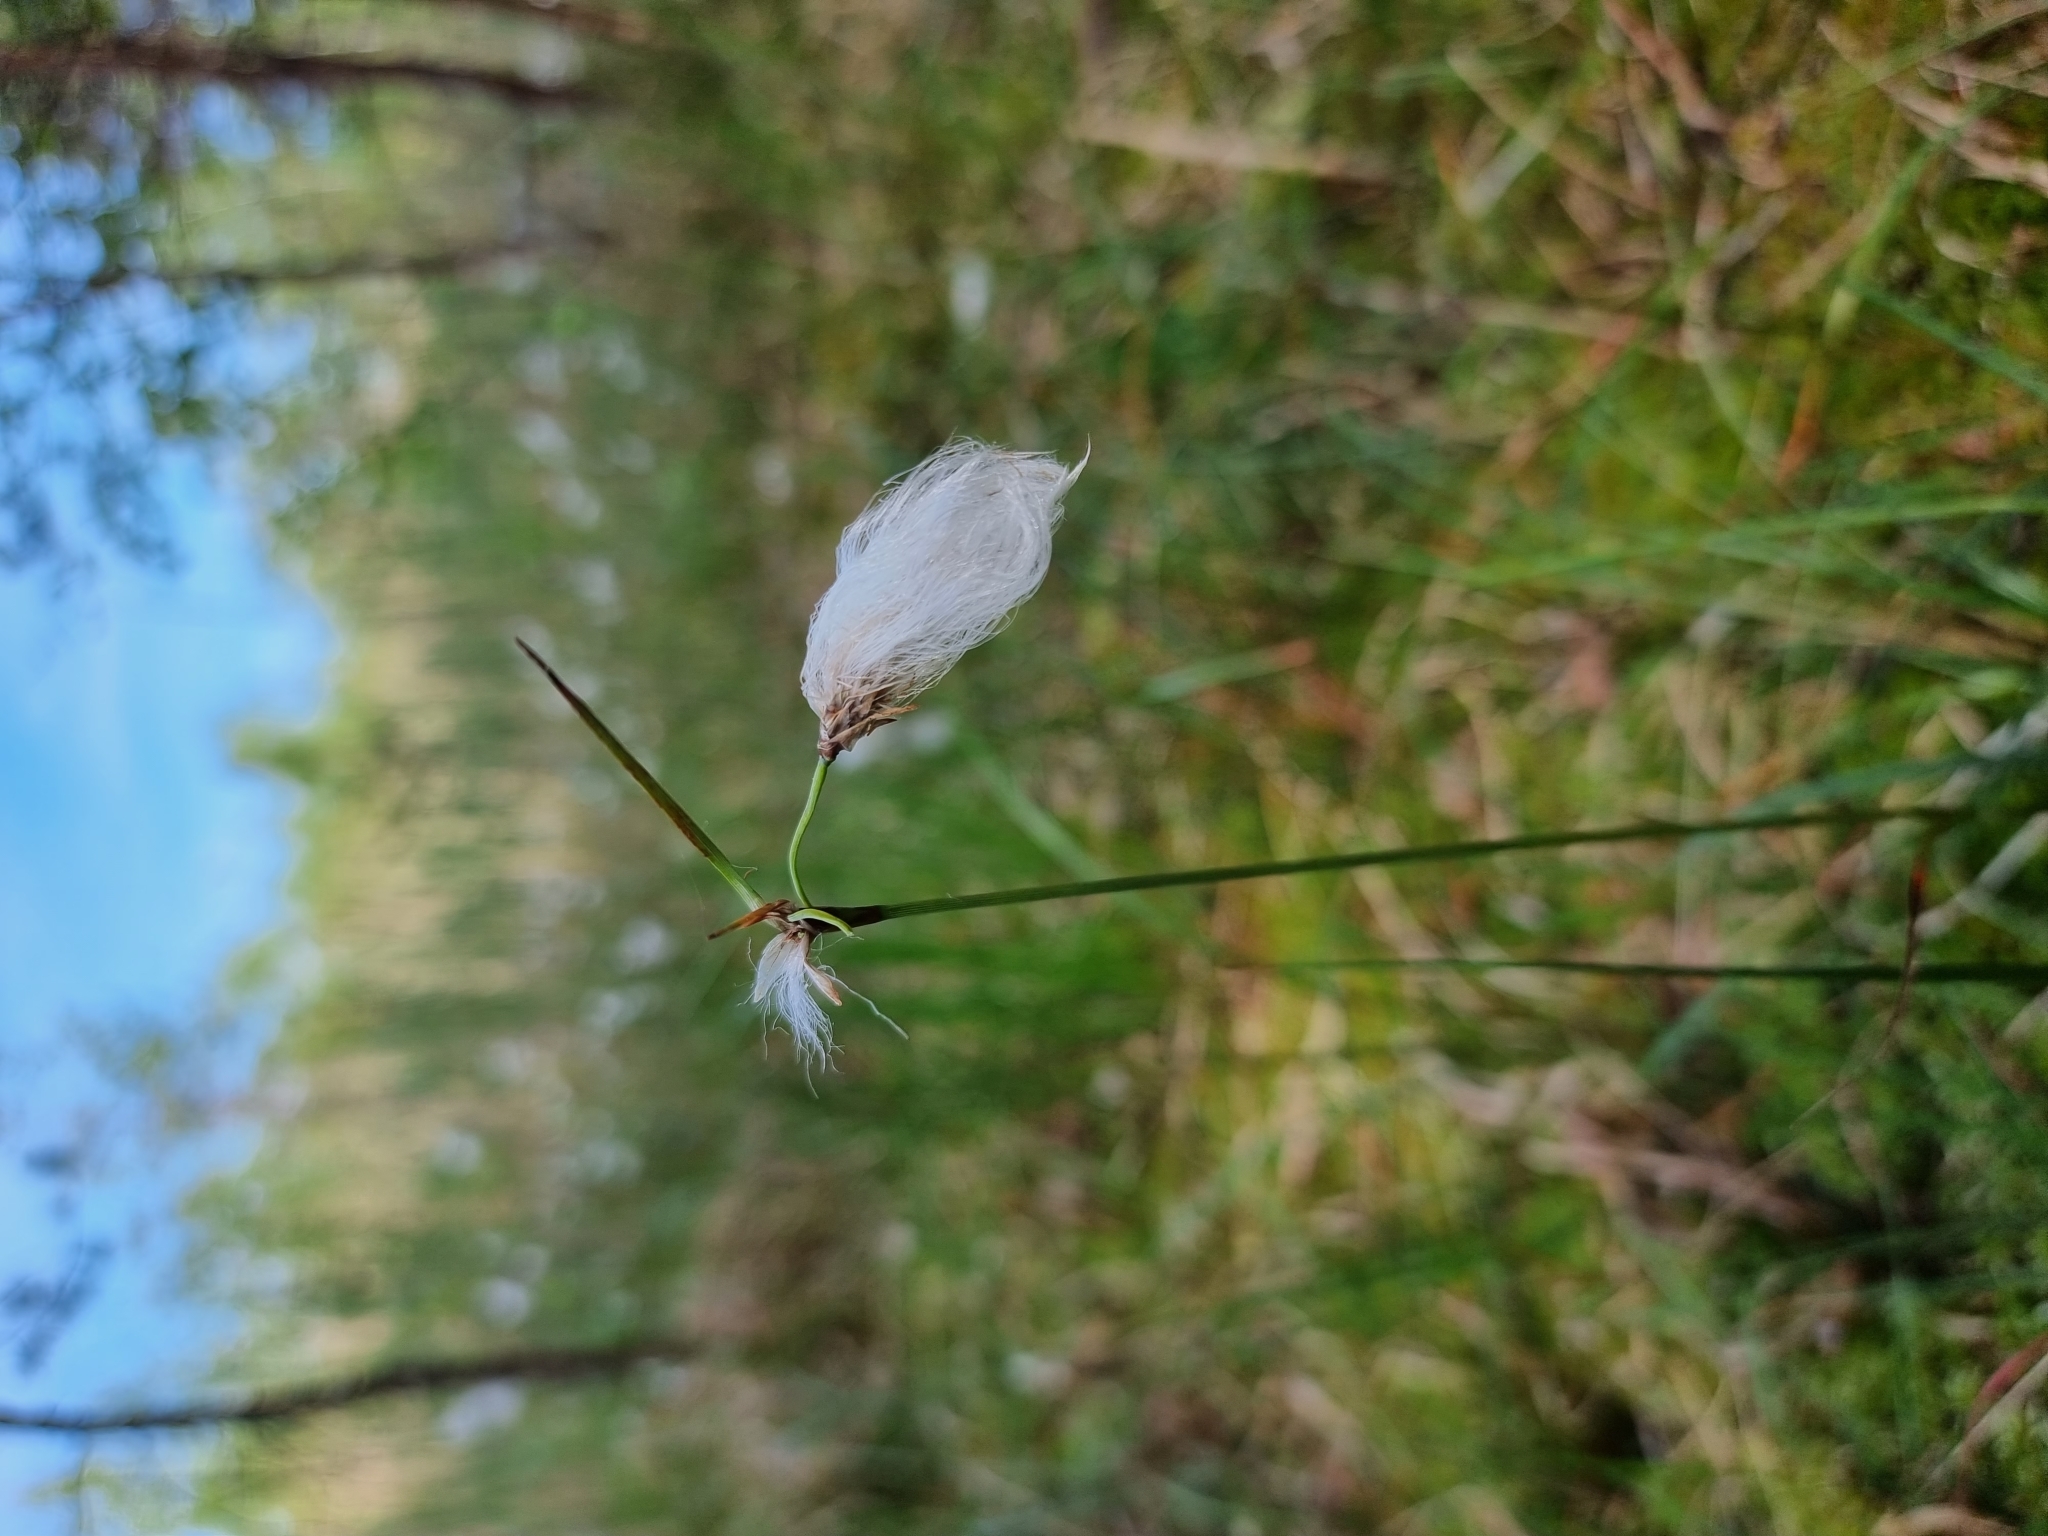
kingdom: Plantae
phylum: Tracheophyta
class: Liliopsida
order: Poales
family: Cyperaceae
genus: Eriophorum
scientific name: Eriophorum angustifolium
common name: Common cottongrass
